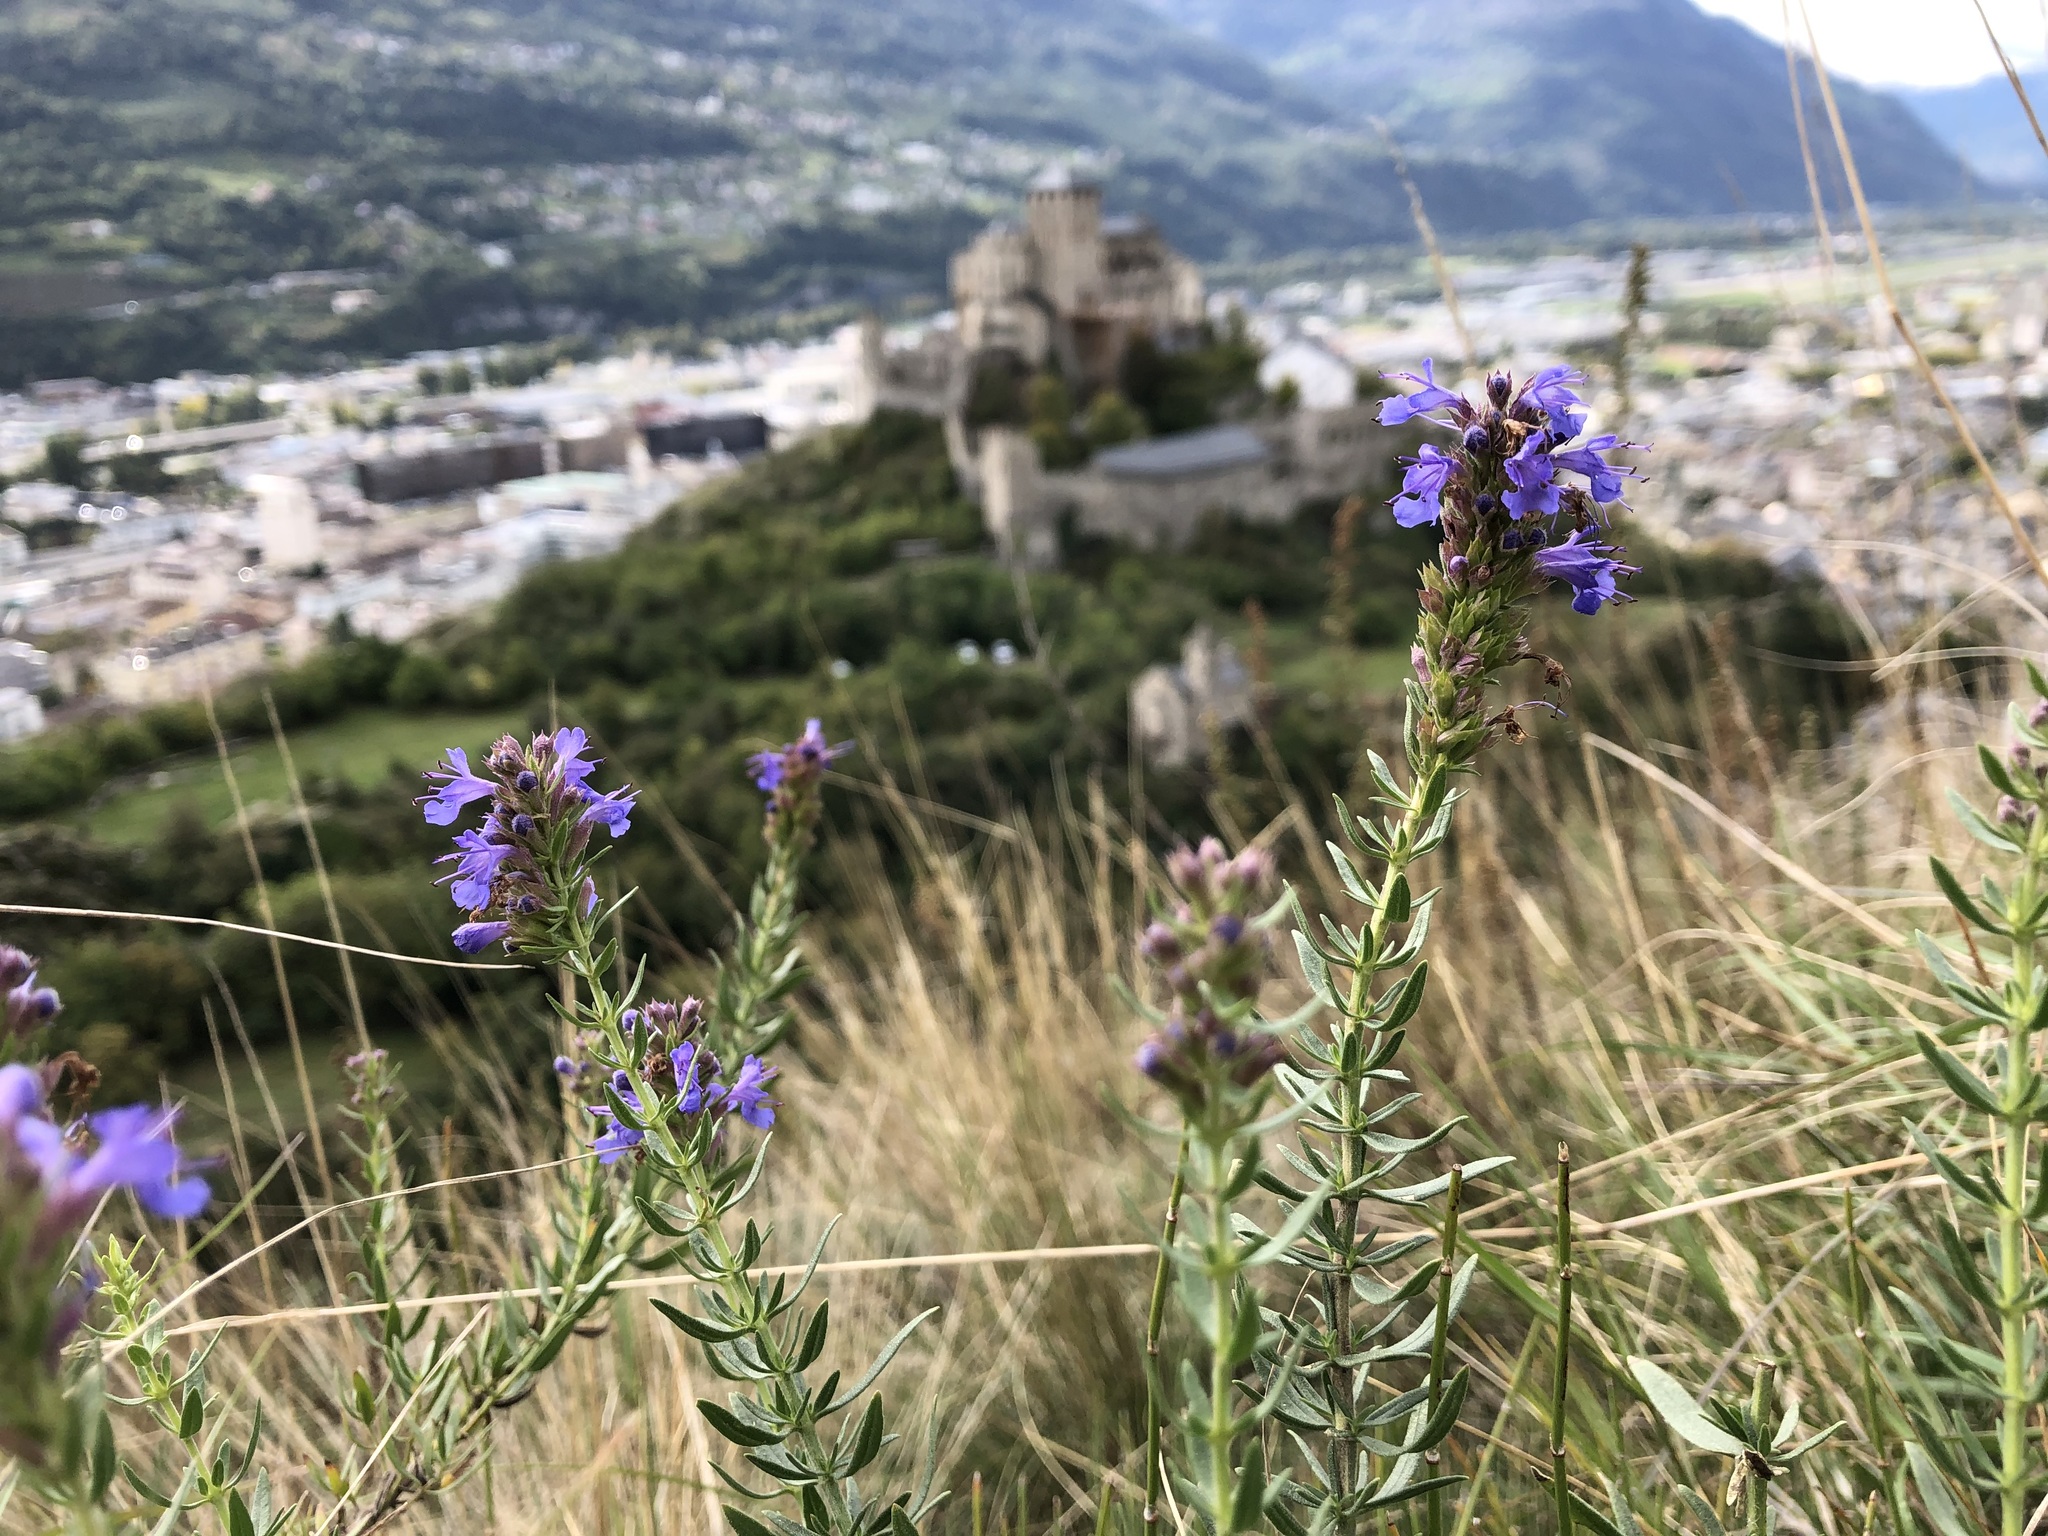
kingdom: Plantae
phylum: Tracheophyta
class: Magnoliopsida
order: Lamiales
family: Lamiaceae
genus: Hyssopus
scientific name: Hyssopus officinalis
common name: Hyssop
